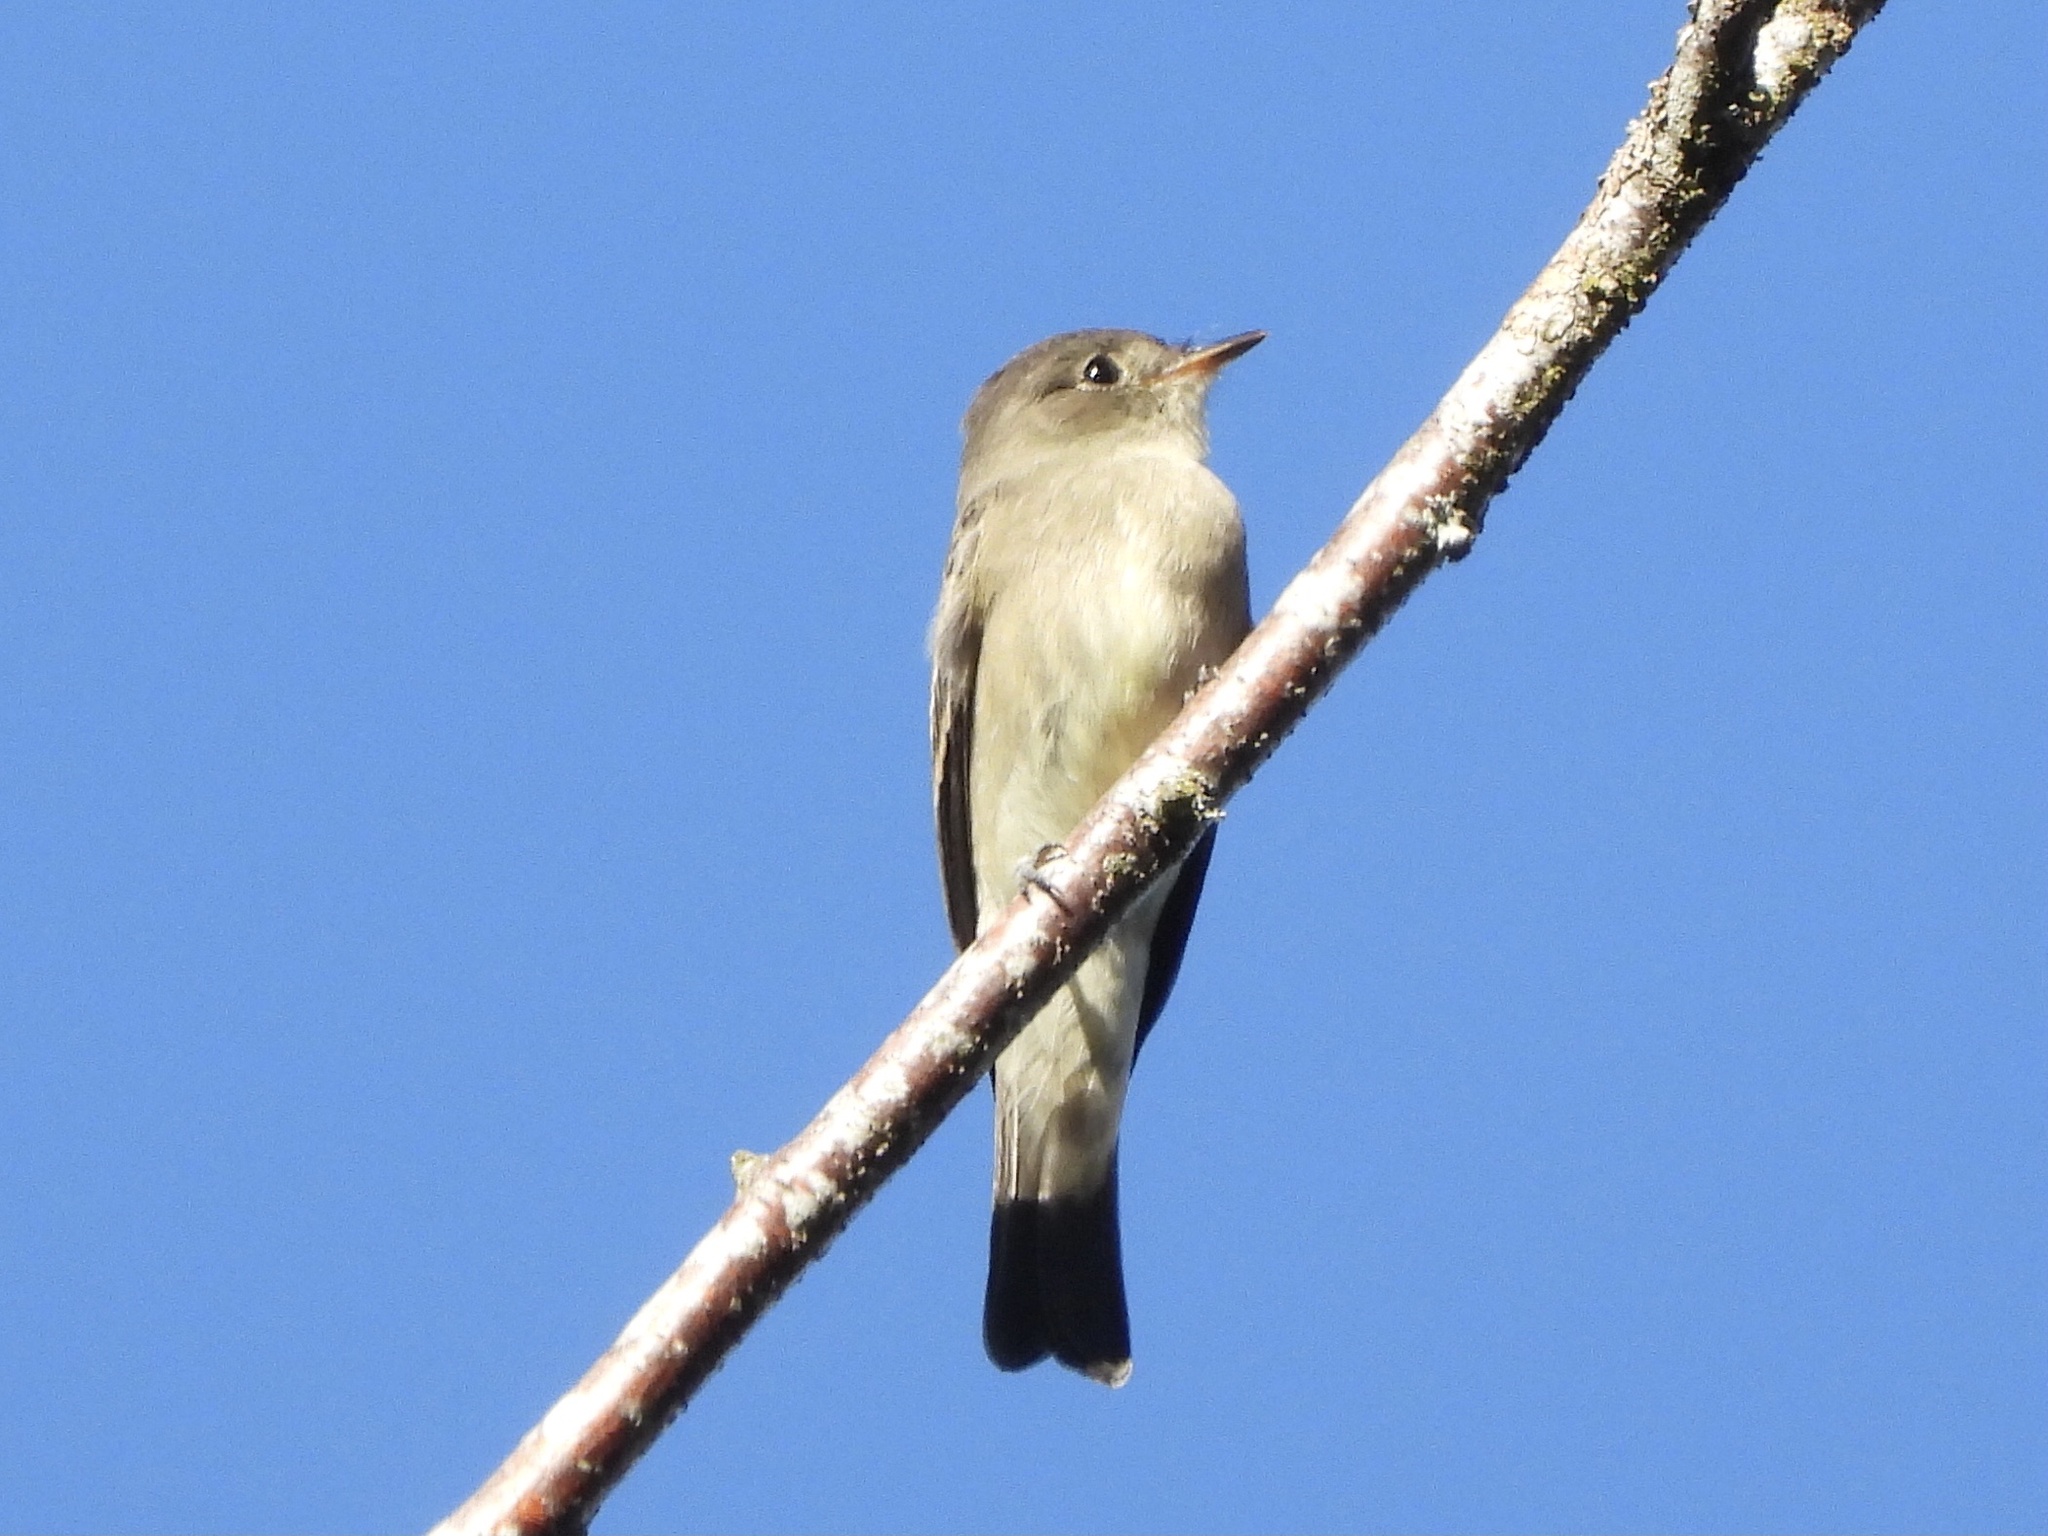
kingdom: Animalia
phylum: Chordata
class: Aves
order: Passeriformes
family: Tyrannidae
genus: Contopus
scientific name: Contopus sordidulus
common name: Western wood-pewee
